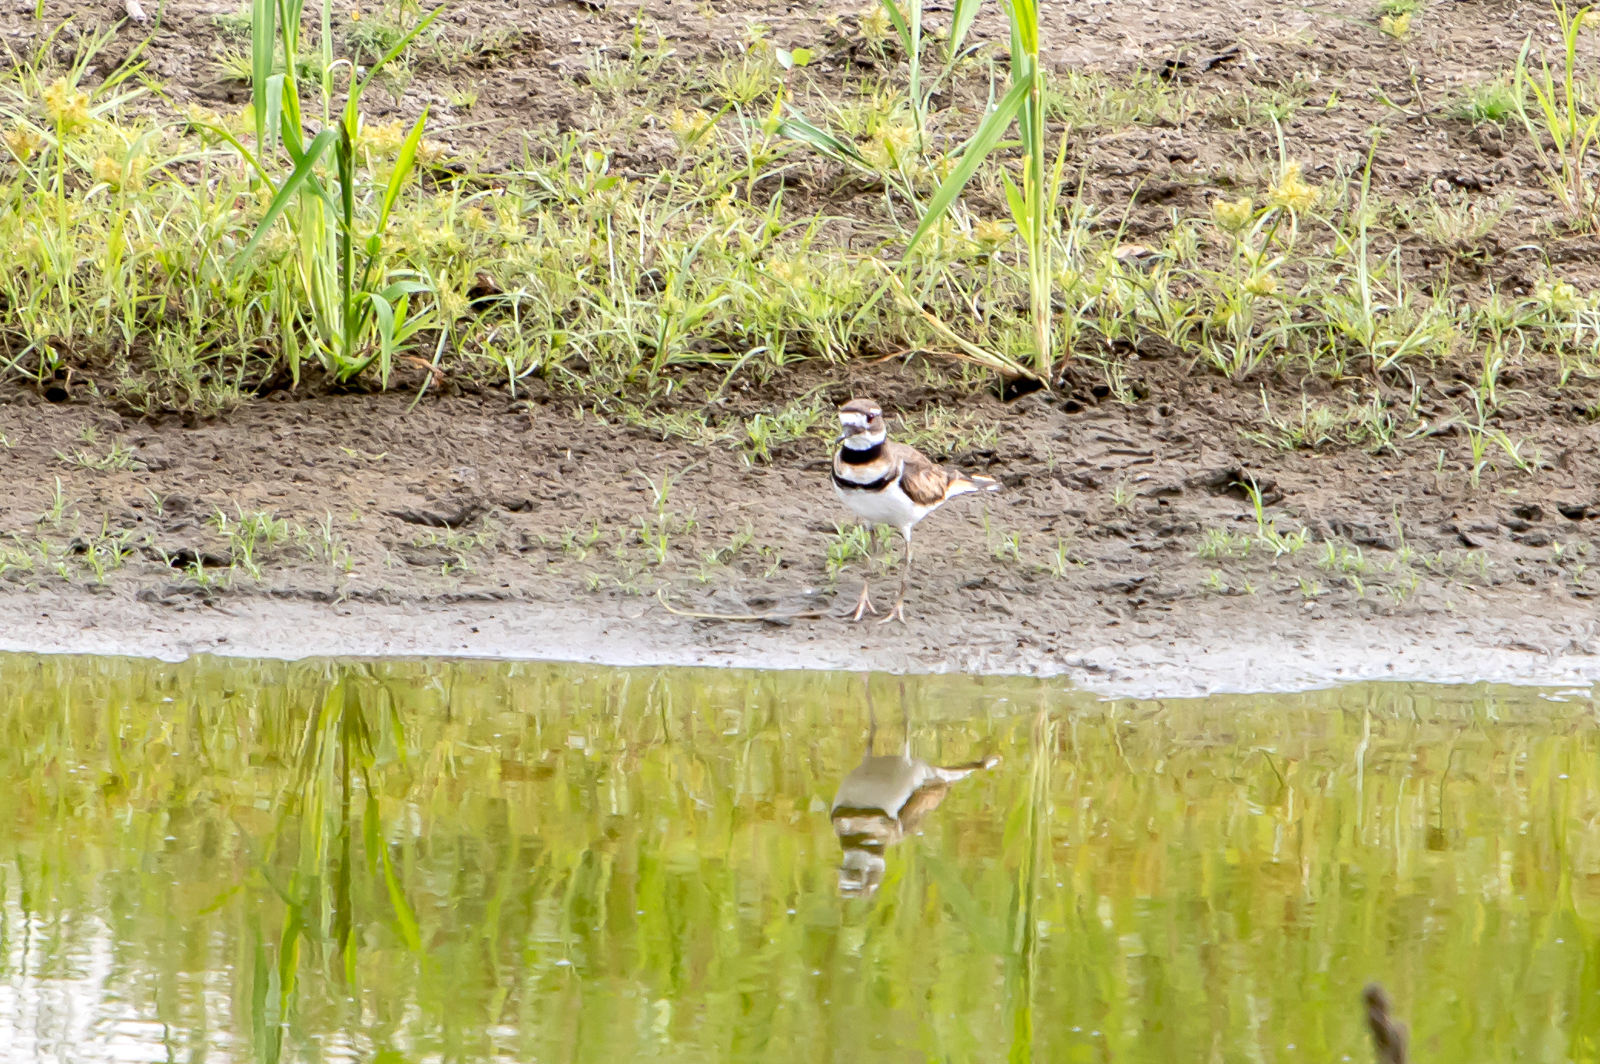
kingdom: Animalia
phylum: Chordata
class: Aves
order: Charadriiformes
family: Charadriidae
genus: Charadrius
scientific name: Charadrius vociferus
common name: Killdeer
